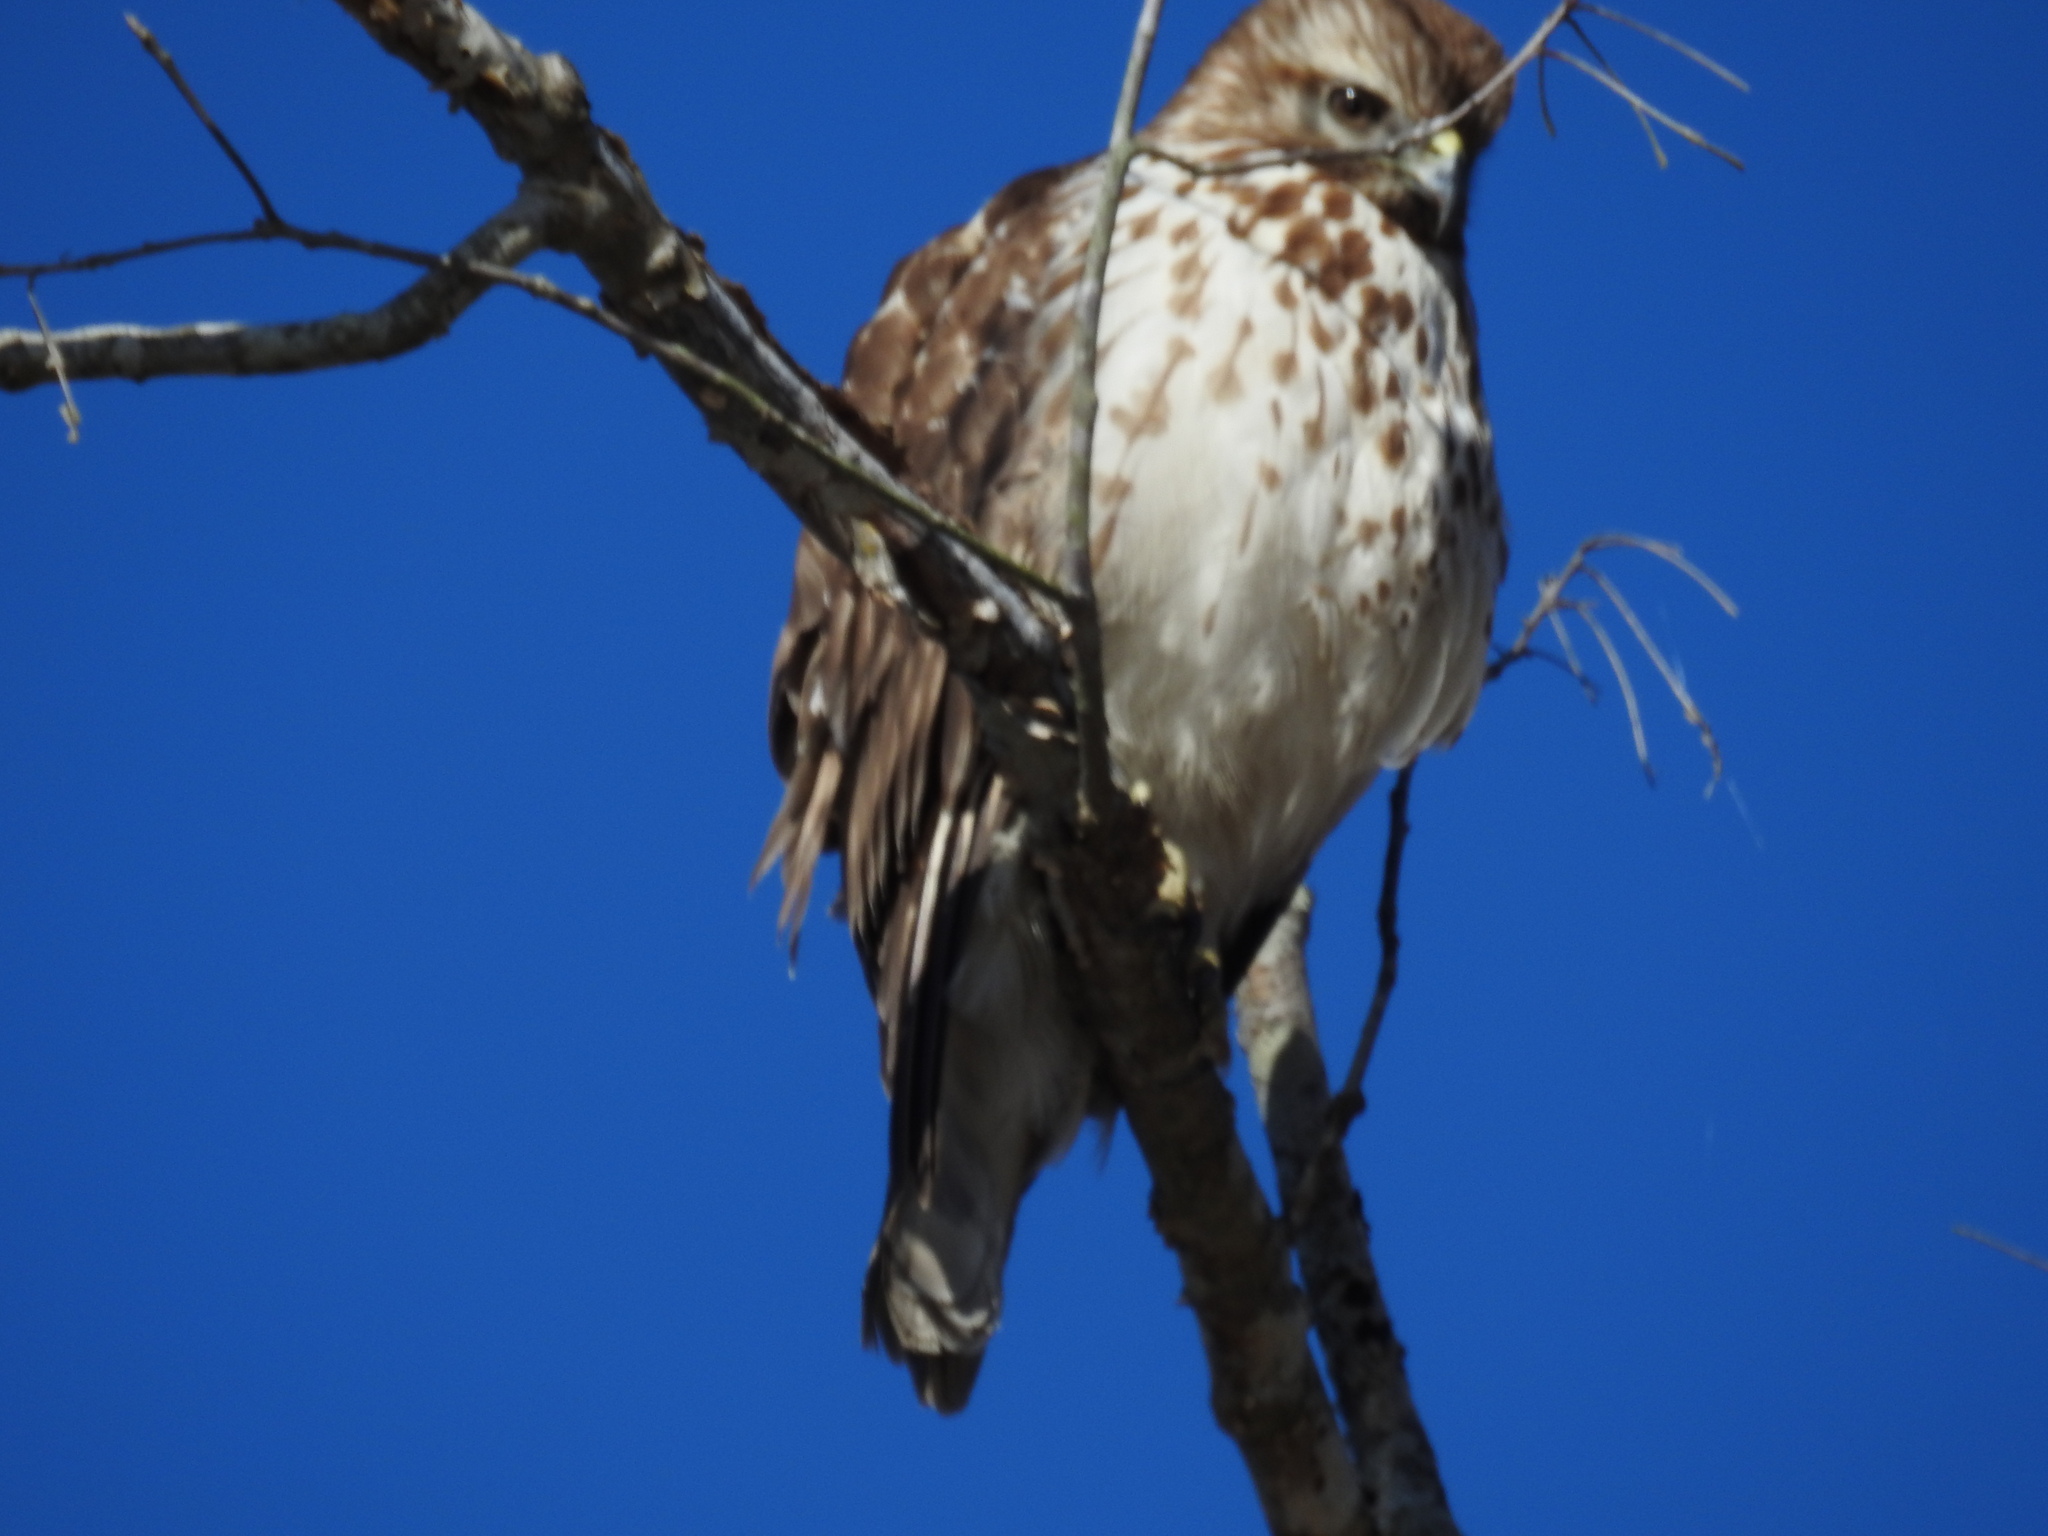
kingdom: Animalia
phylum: Chordata
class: Aves
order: Accipitriformes
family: Accipitridae
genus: Buteo
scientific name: Buteo lineatus
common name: Red-shouldered hawk
